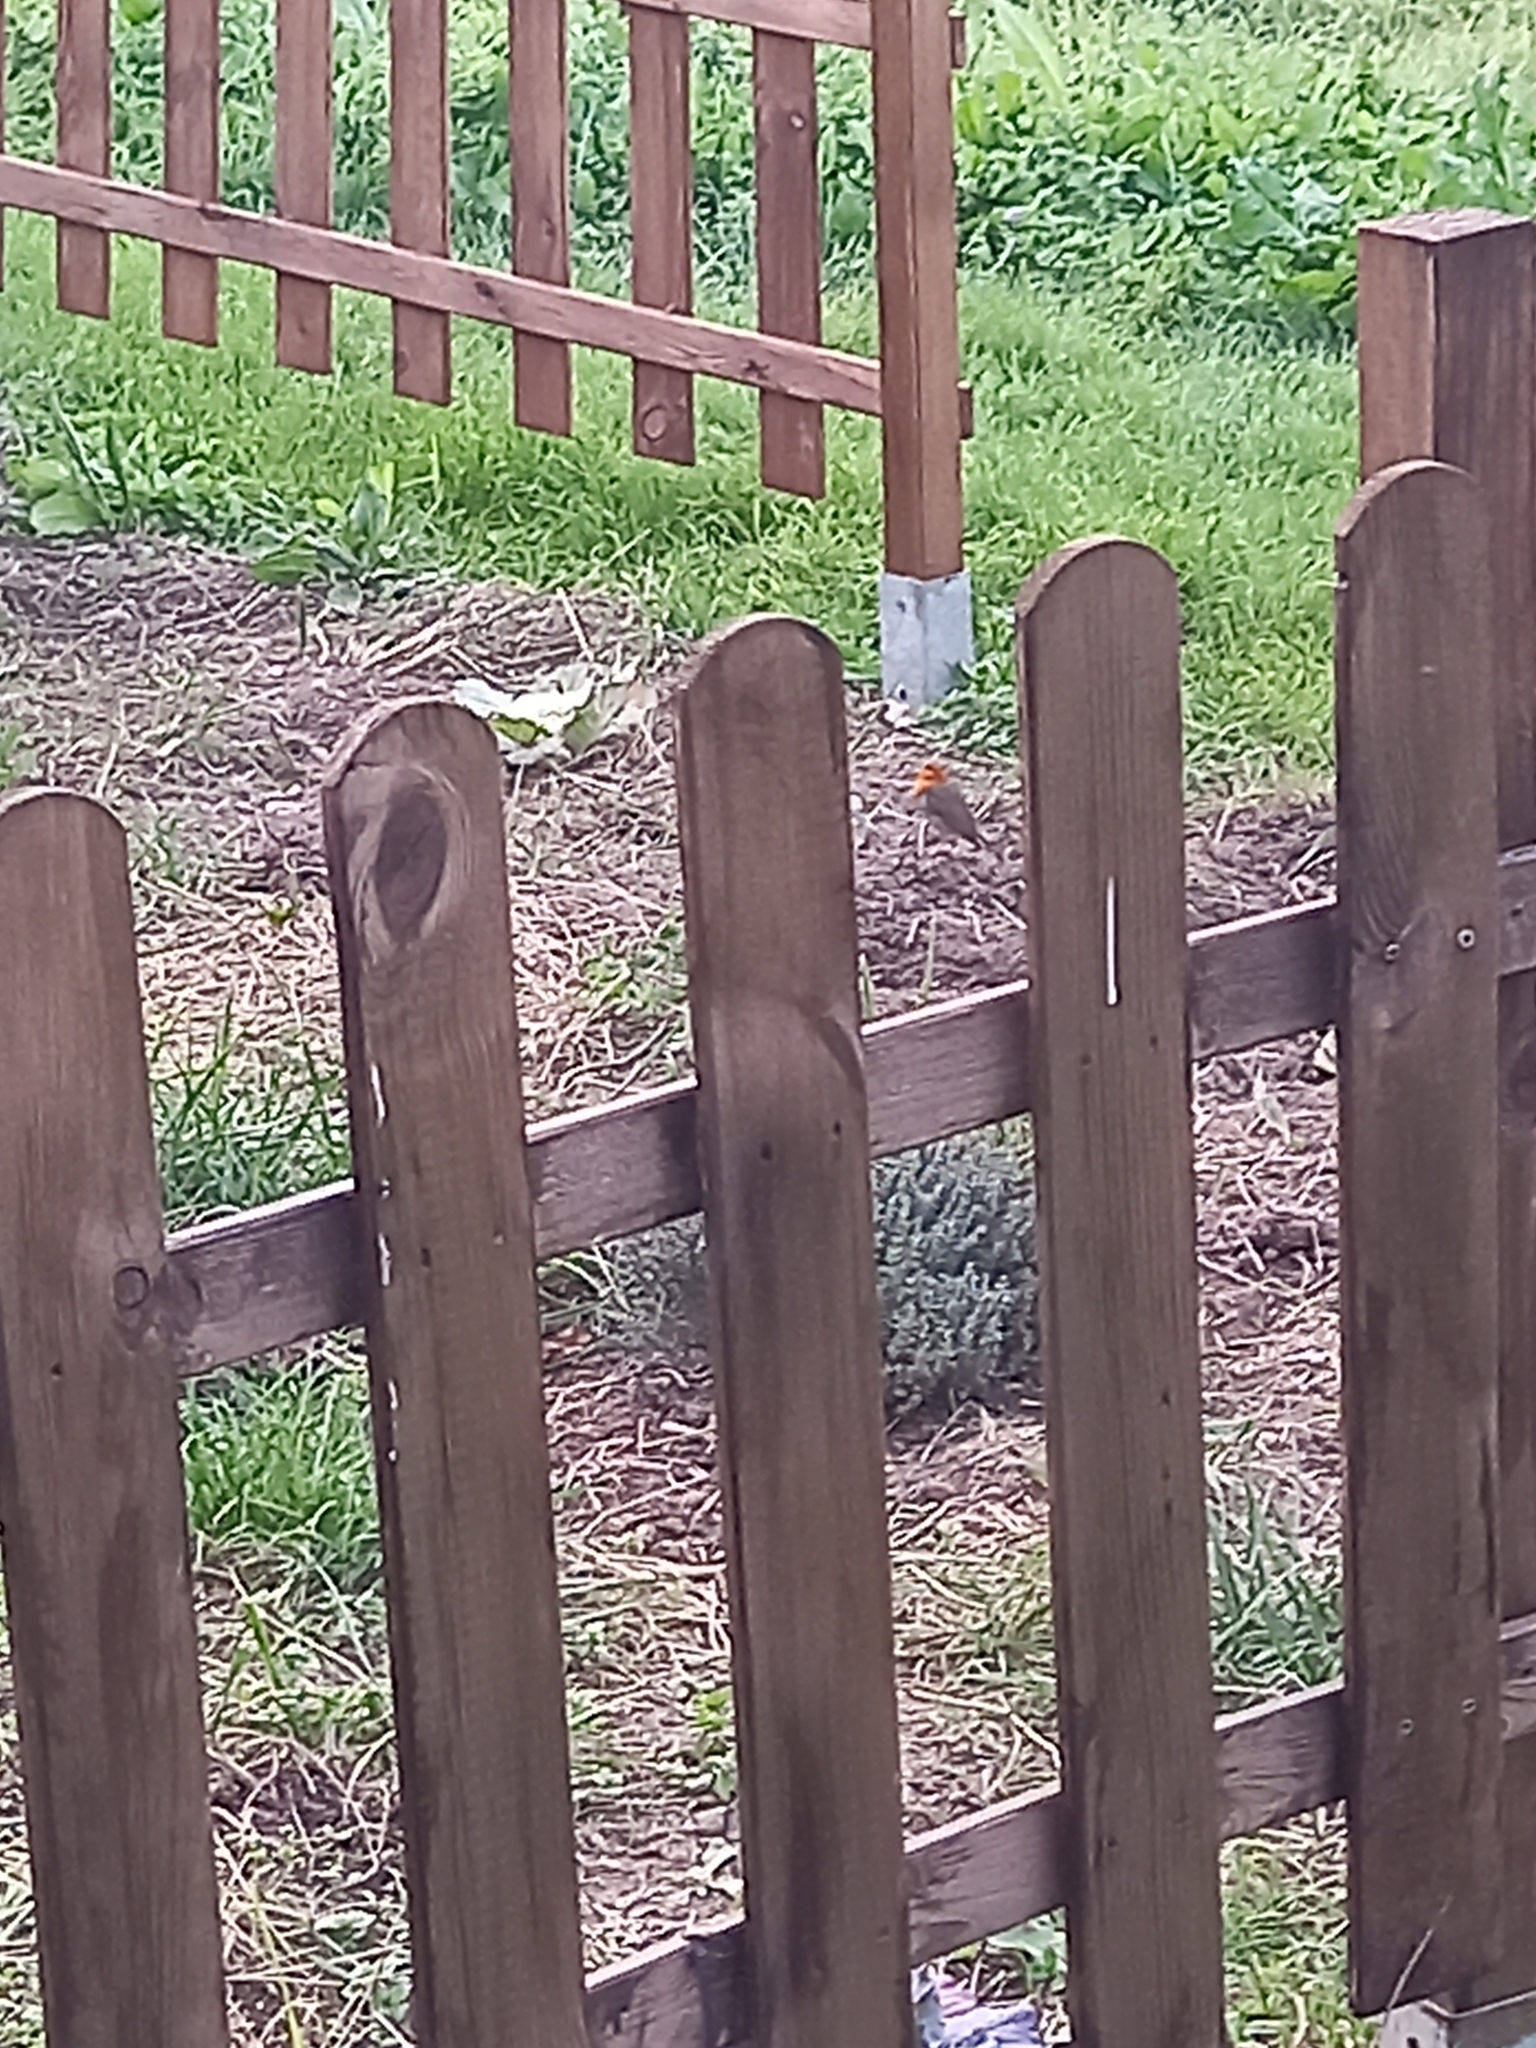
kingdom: Animalia
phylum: Chordata
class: Aves
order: Passeriformes
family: Muscicapidae
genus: Erithacus
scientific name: Erithacus rubecula
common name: European robin
